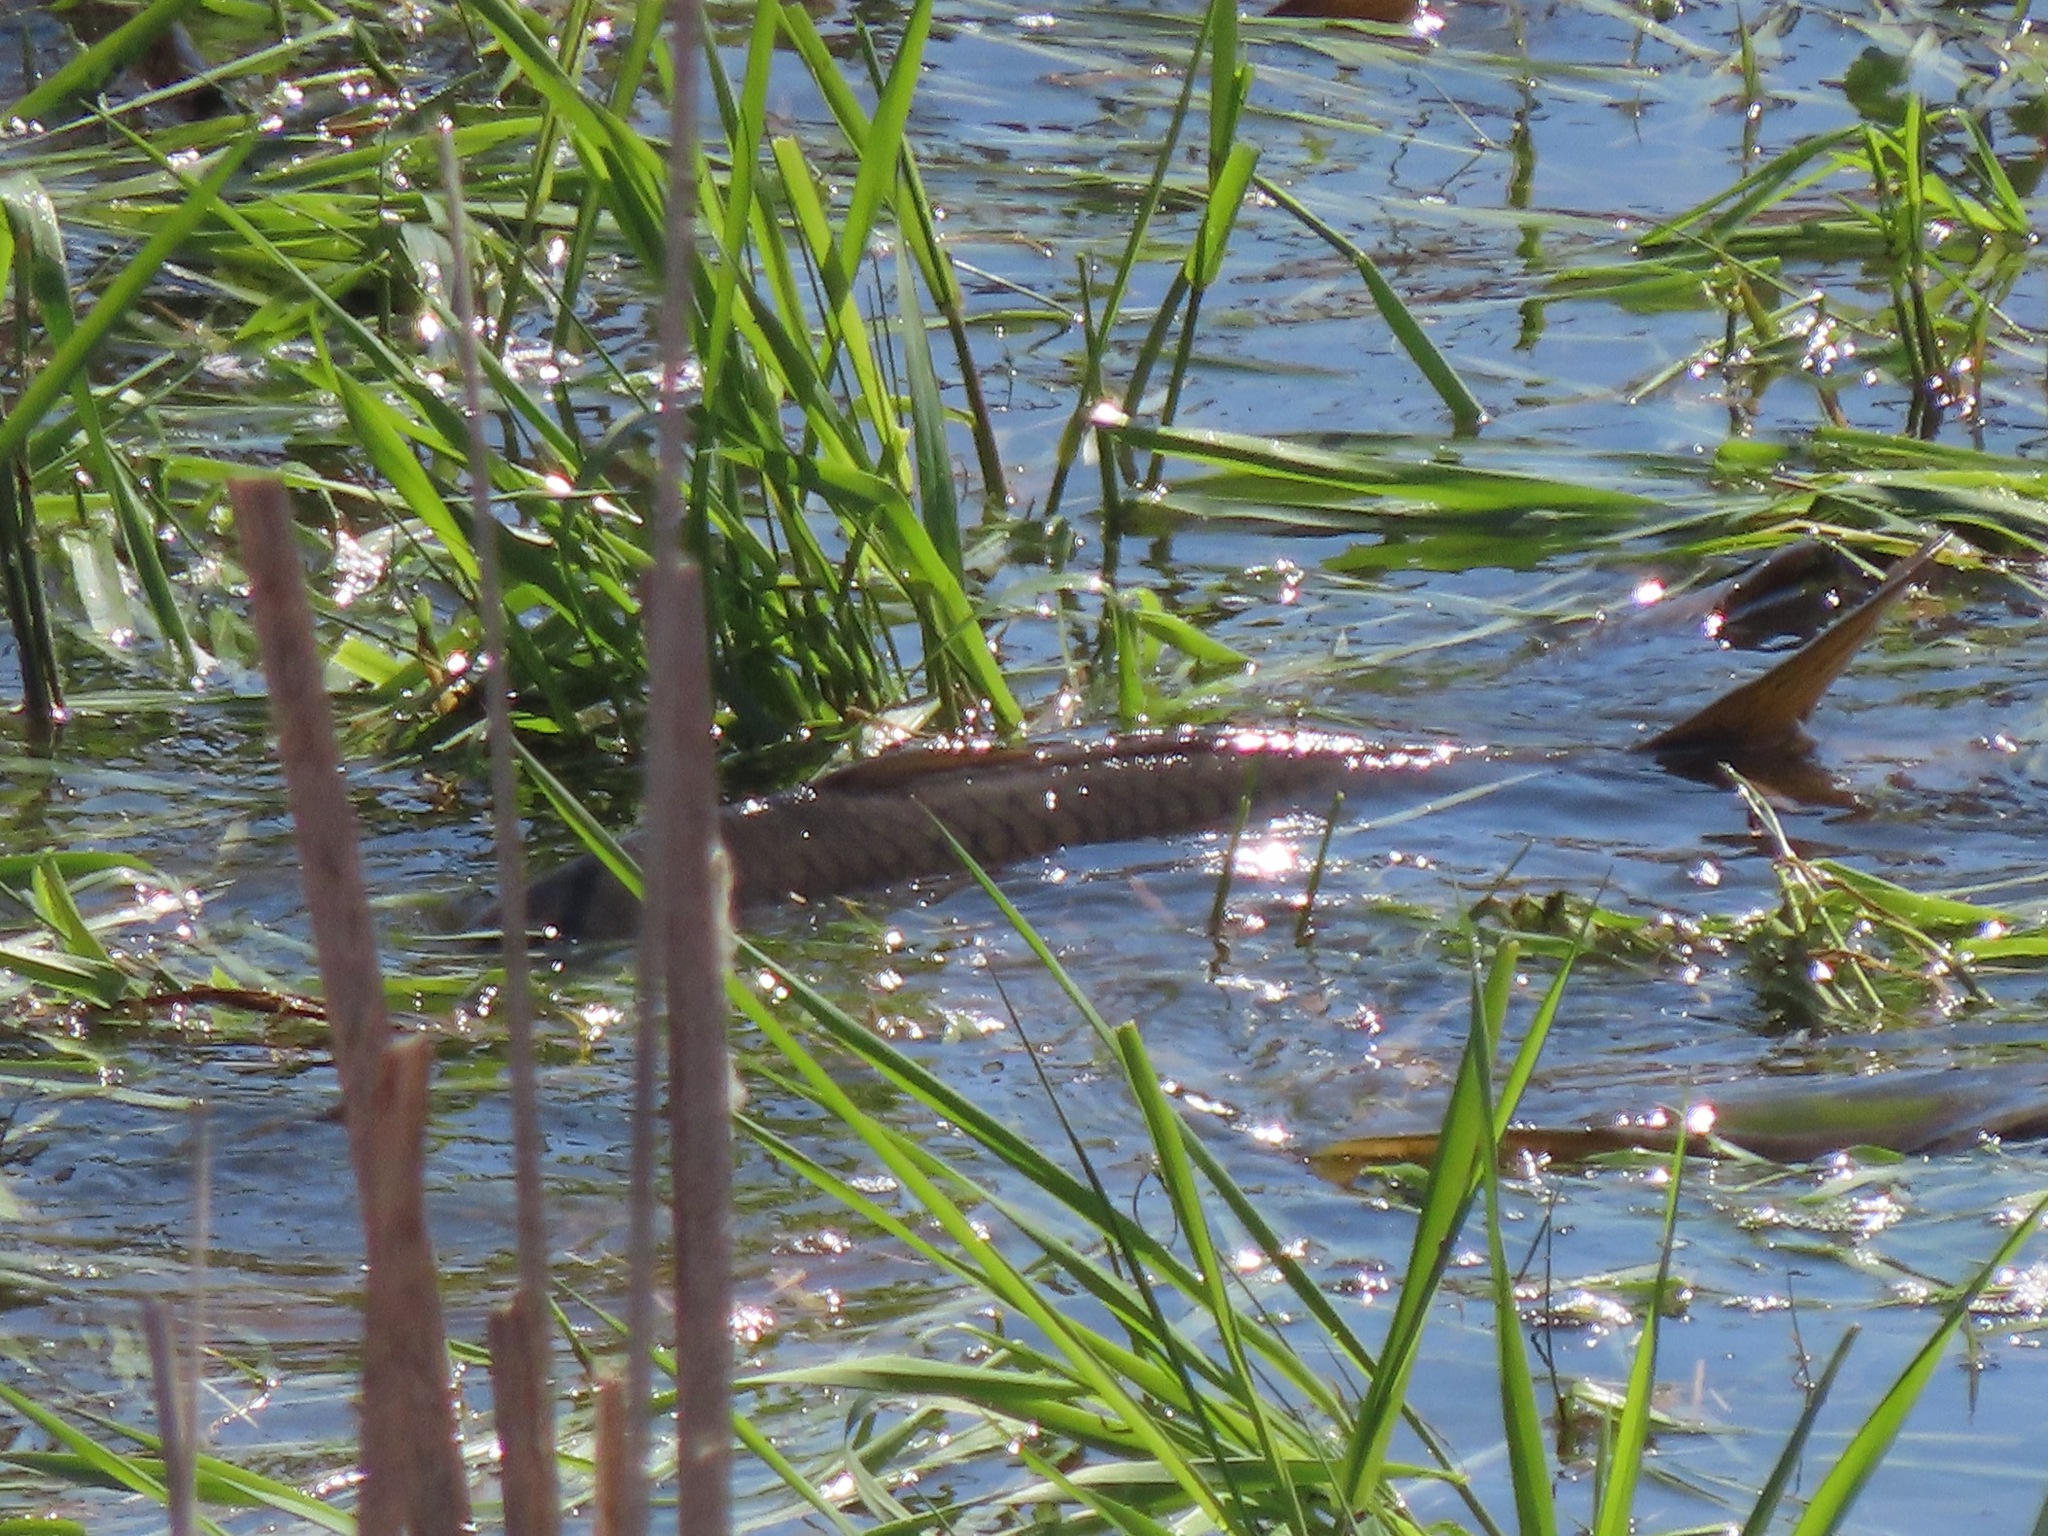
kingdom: Animalia
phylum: Chordata
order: Cypriniformes
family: Cyprinidae
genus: Cyprinus
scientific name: Cyprinus carpio
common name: Common carp
